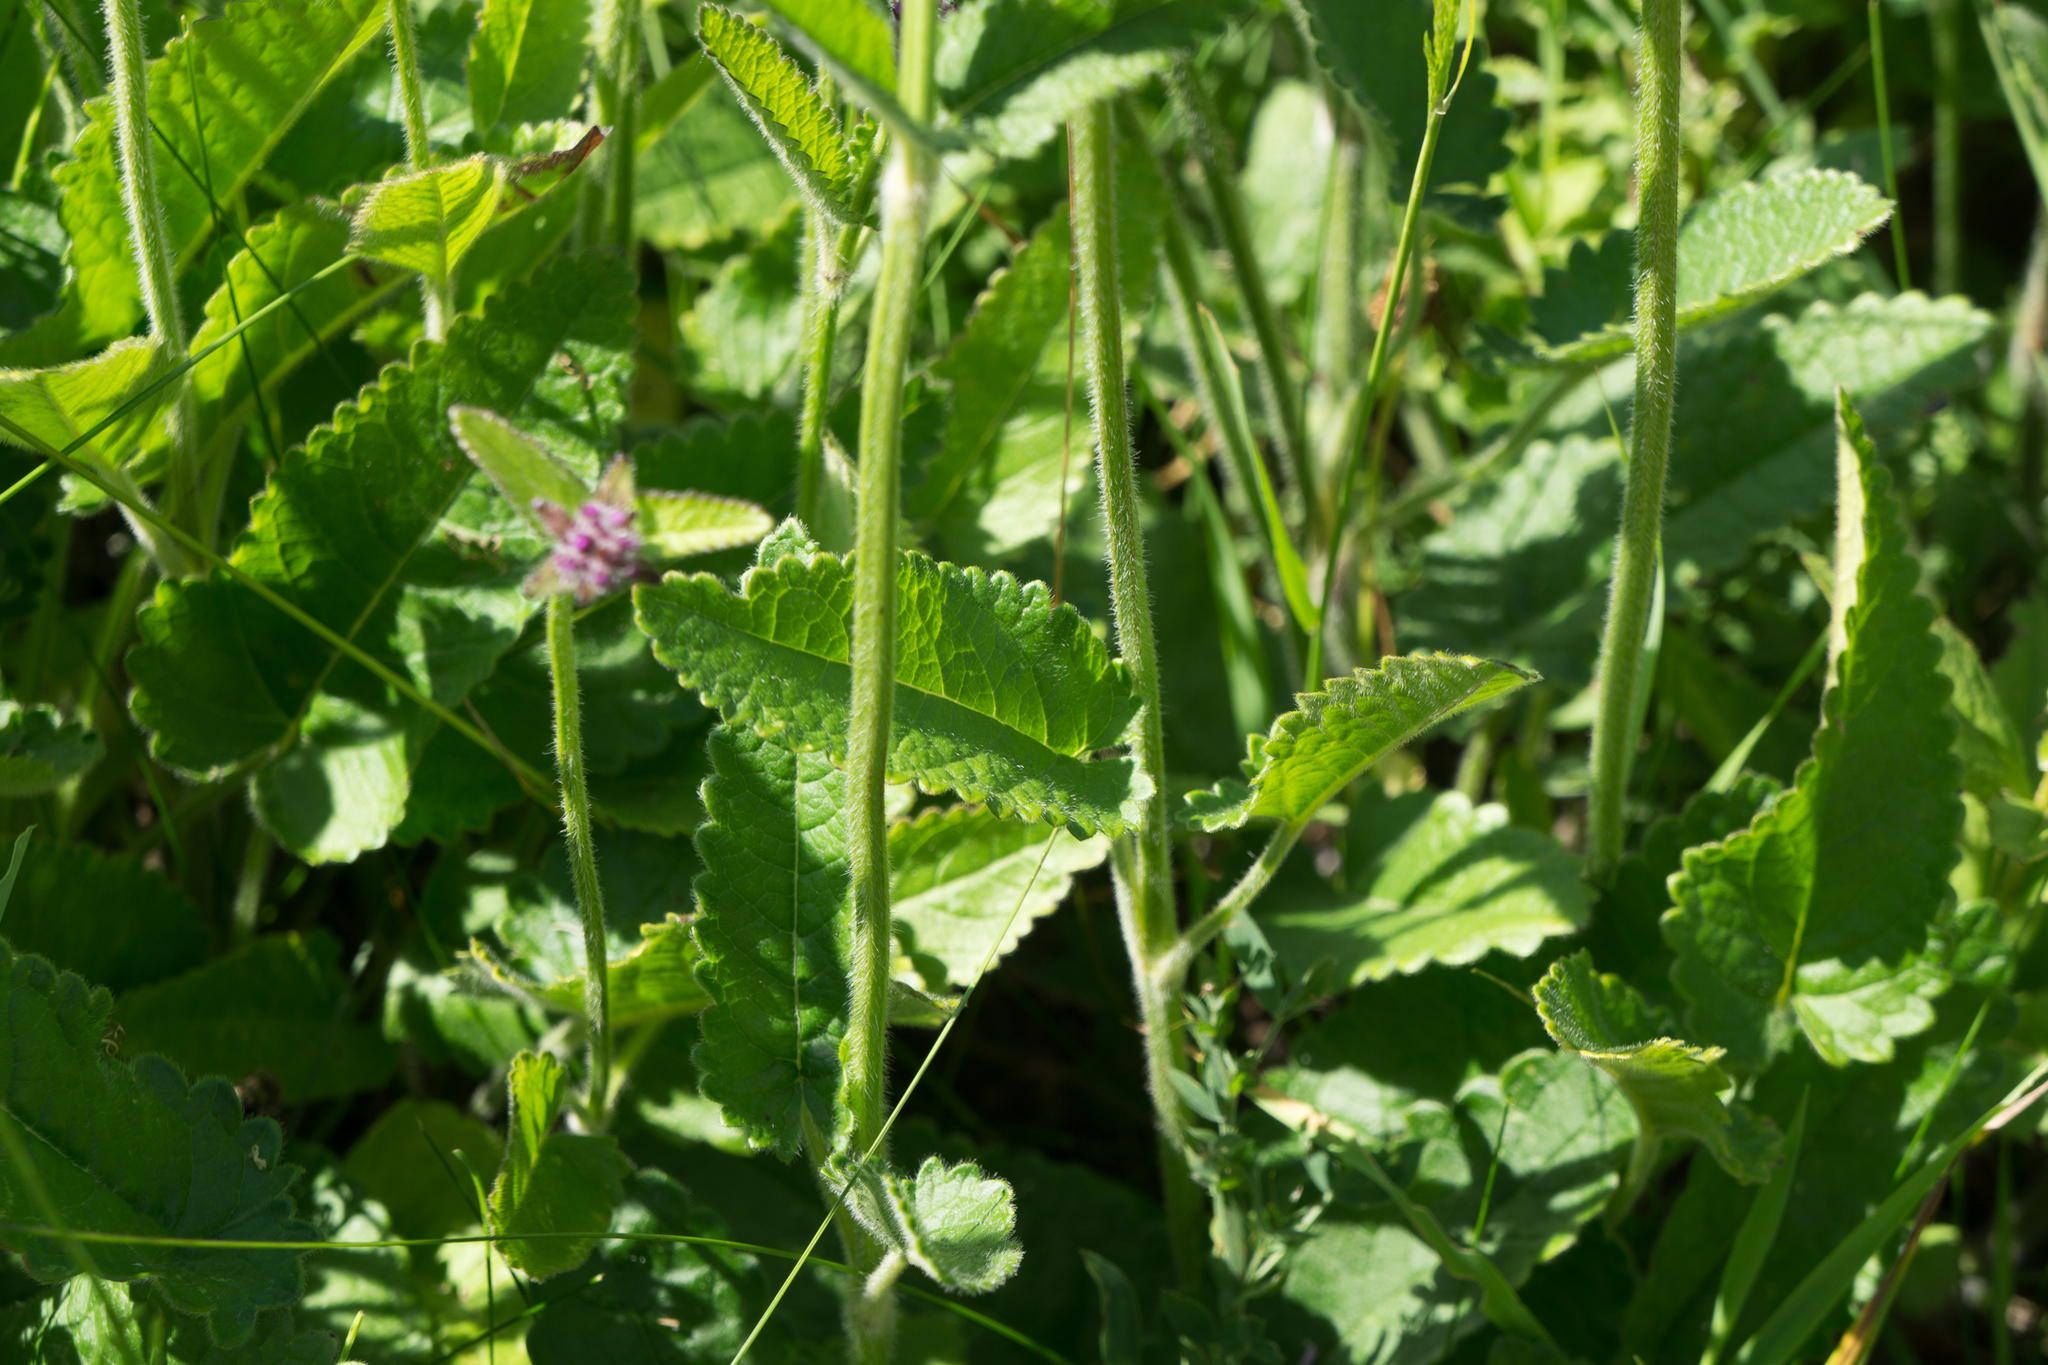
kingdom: Plantae
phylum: Tracheophyta
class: Magnoliopsida
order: Lamiales
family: Lamiaceae
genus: Betonica
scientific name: Betonica officinalis
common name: Bishop's-wort
